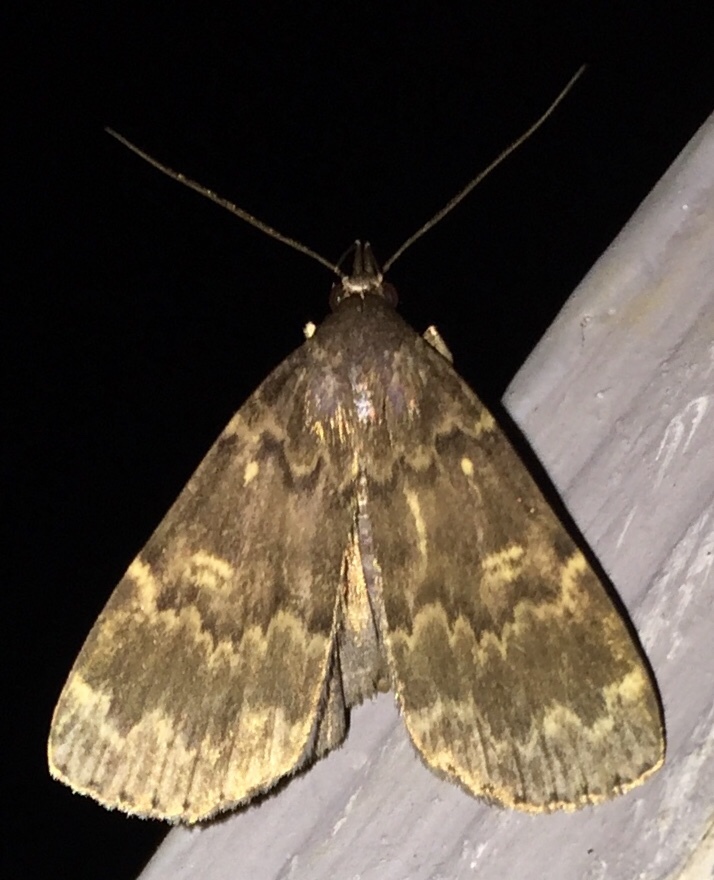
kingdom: Animalia
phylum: Arthropoda
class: Insecta
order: Lepidoptera
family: Erebidae
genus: Idia
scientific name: Idia lubricalis
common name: Twin-striped tabby
